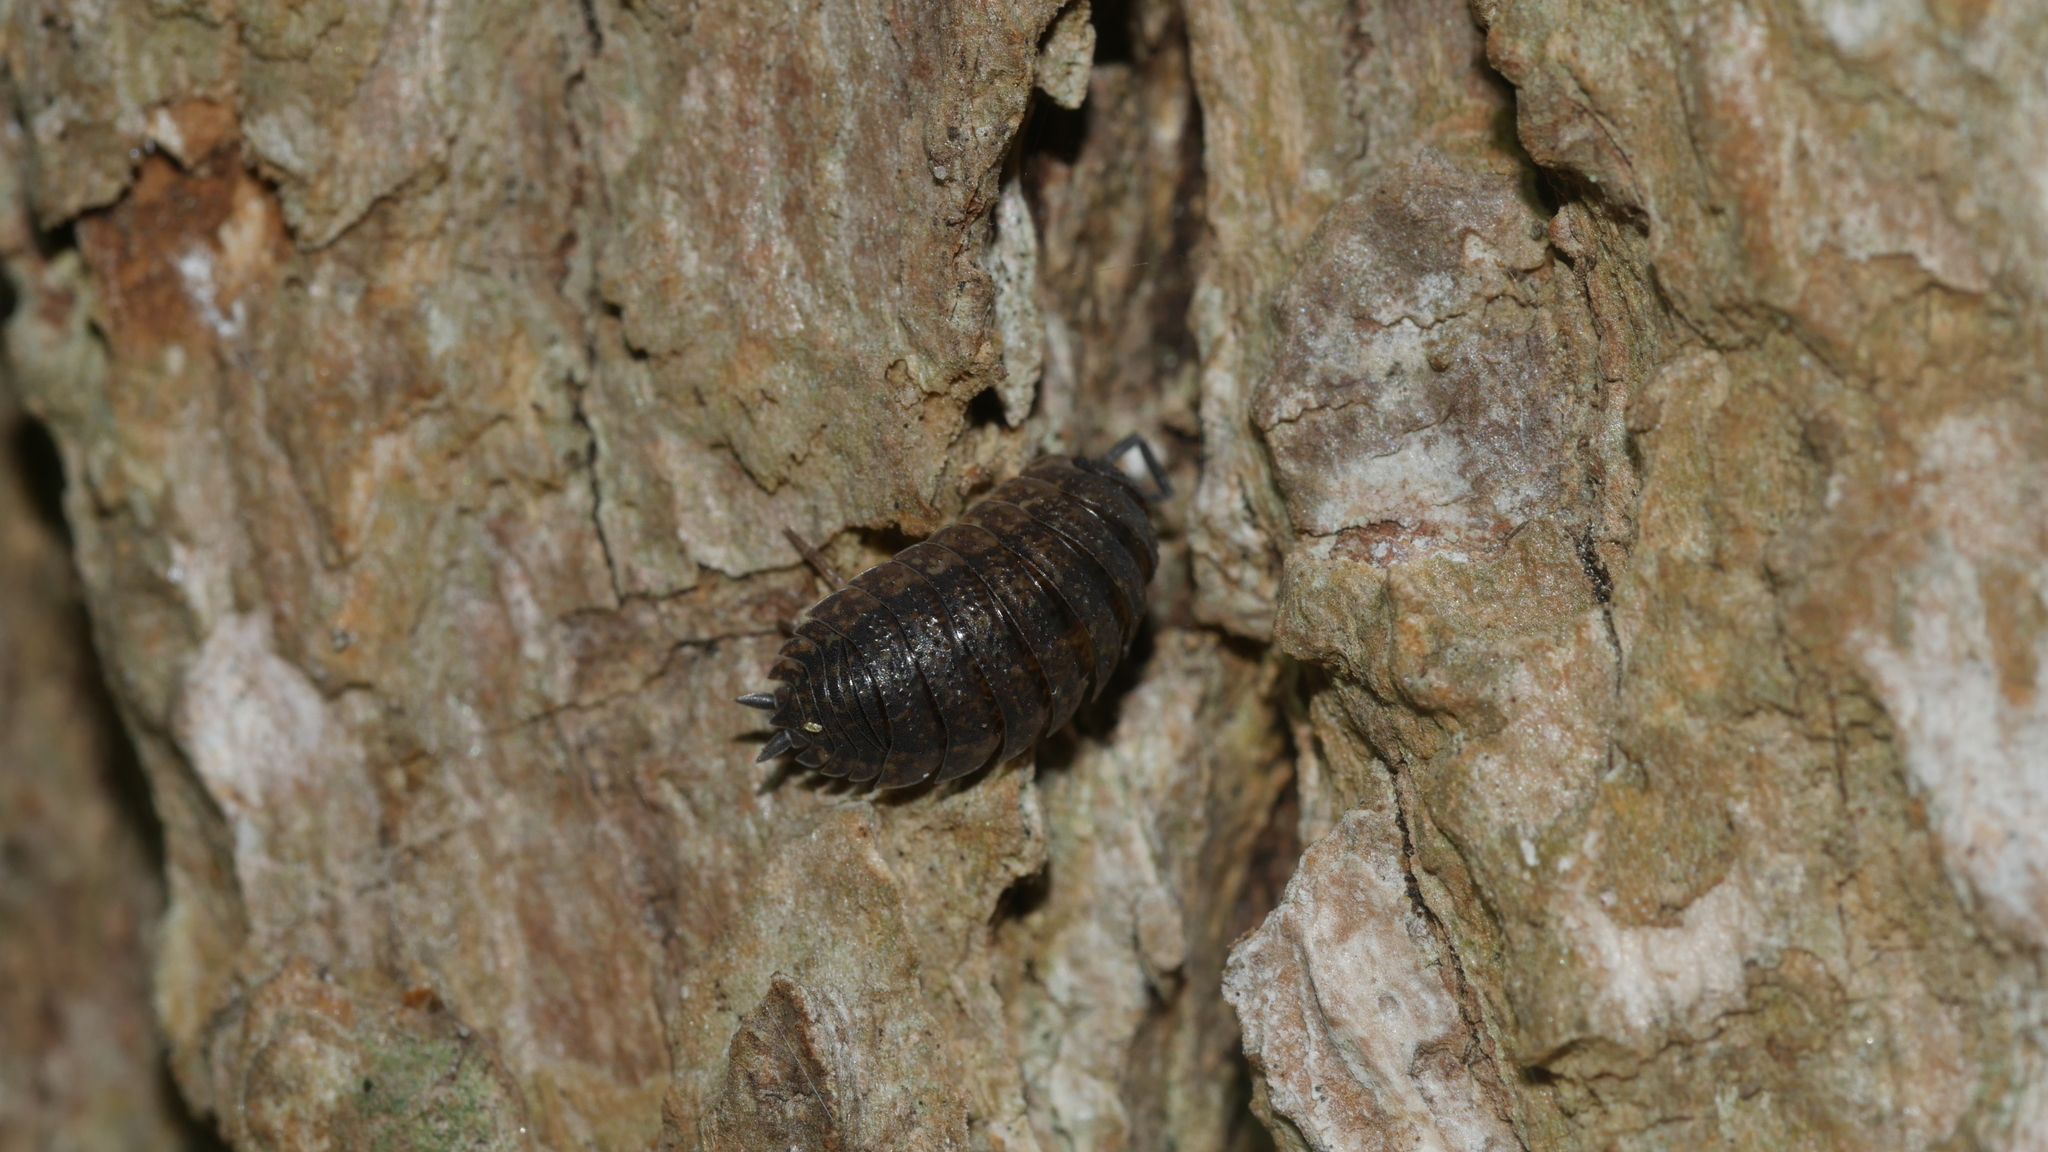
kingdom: Animalia
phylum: Arthropoda
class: Malacostraca
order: Isopoda
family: Porcellionidae
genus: Porcellio
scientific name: Porcellio scaber
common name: Common rough woodlouse
